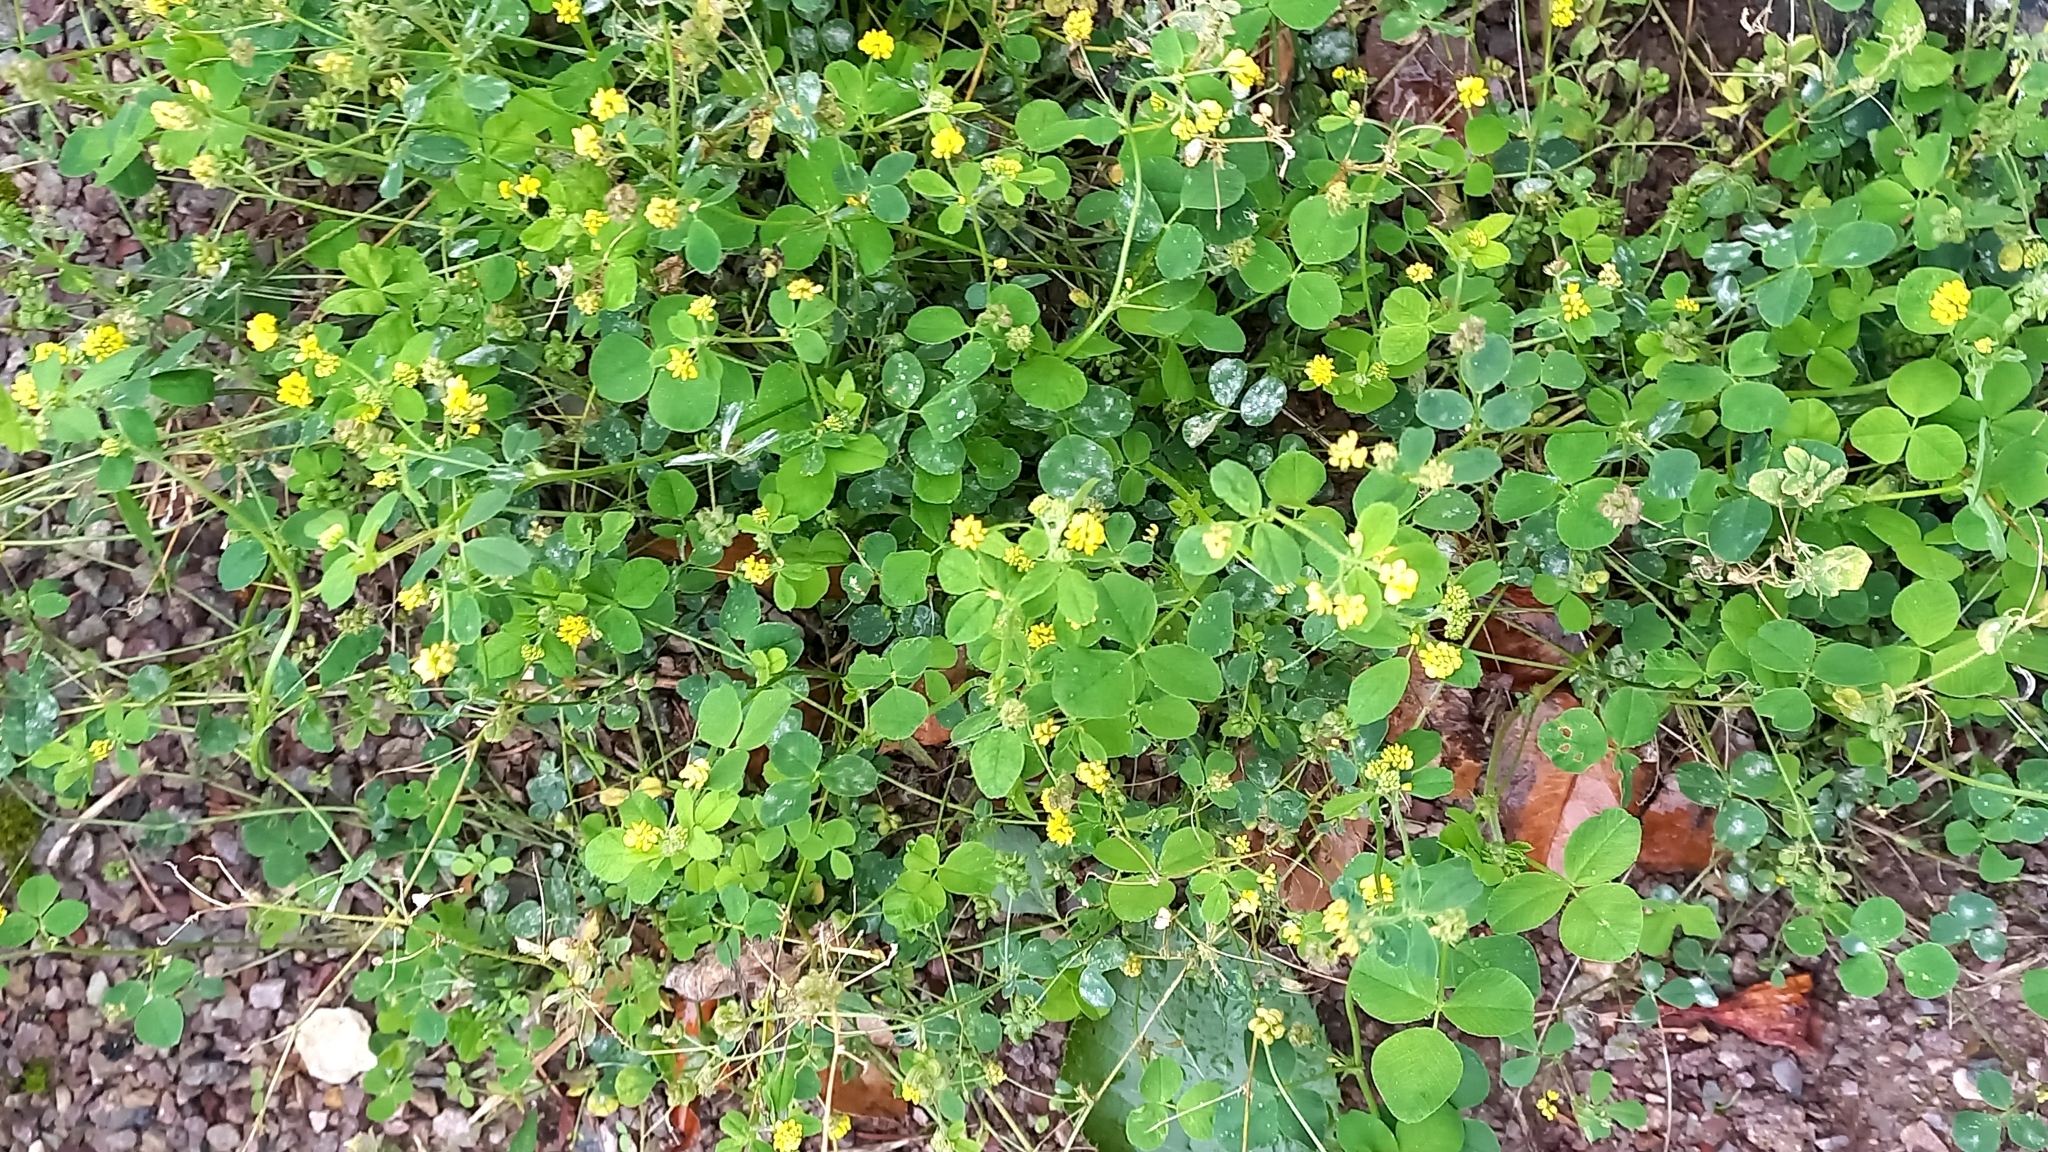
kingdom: Plantae
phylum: Tracheophyta
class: Magnoliopsida
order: Fabales
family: Fabaceae
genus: Medicago
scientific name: Medicago lupulina
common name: Black medick
